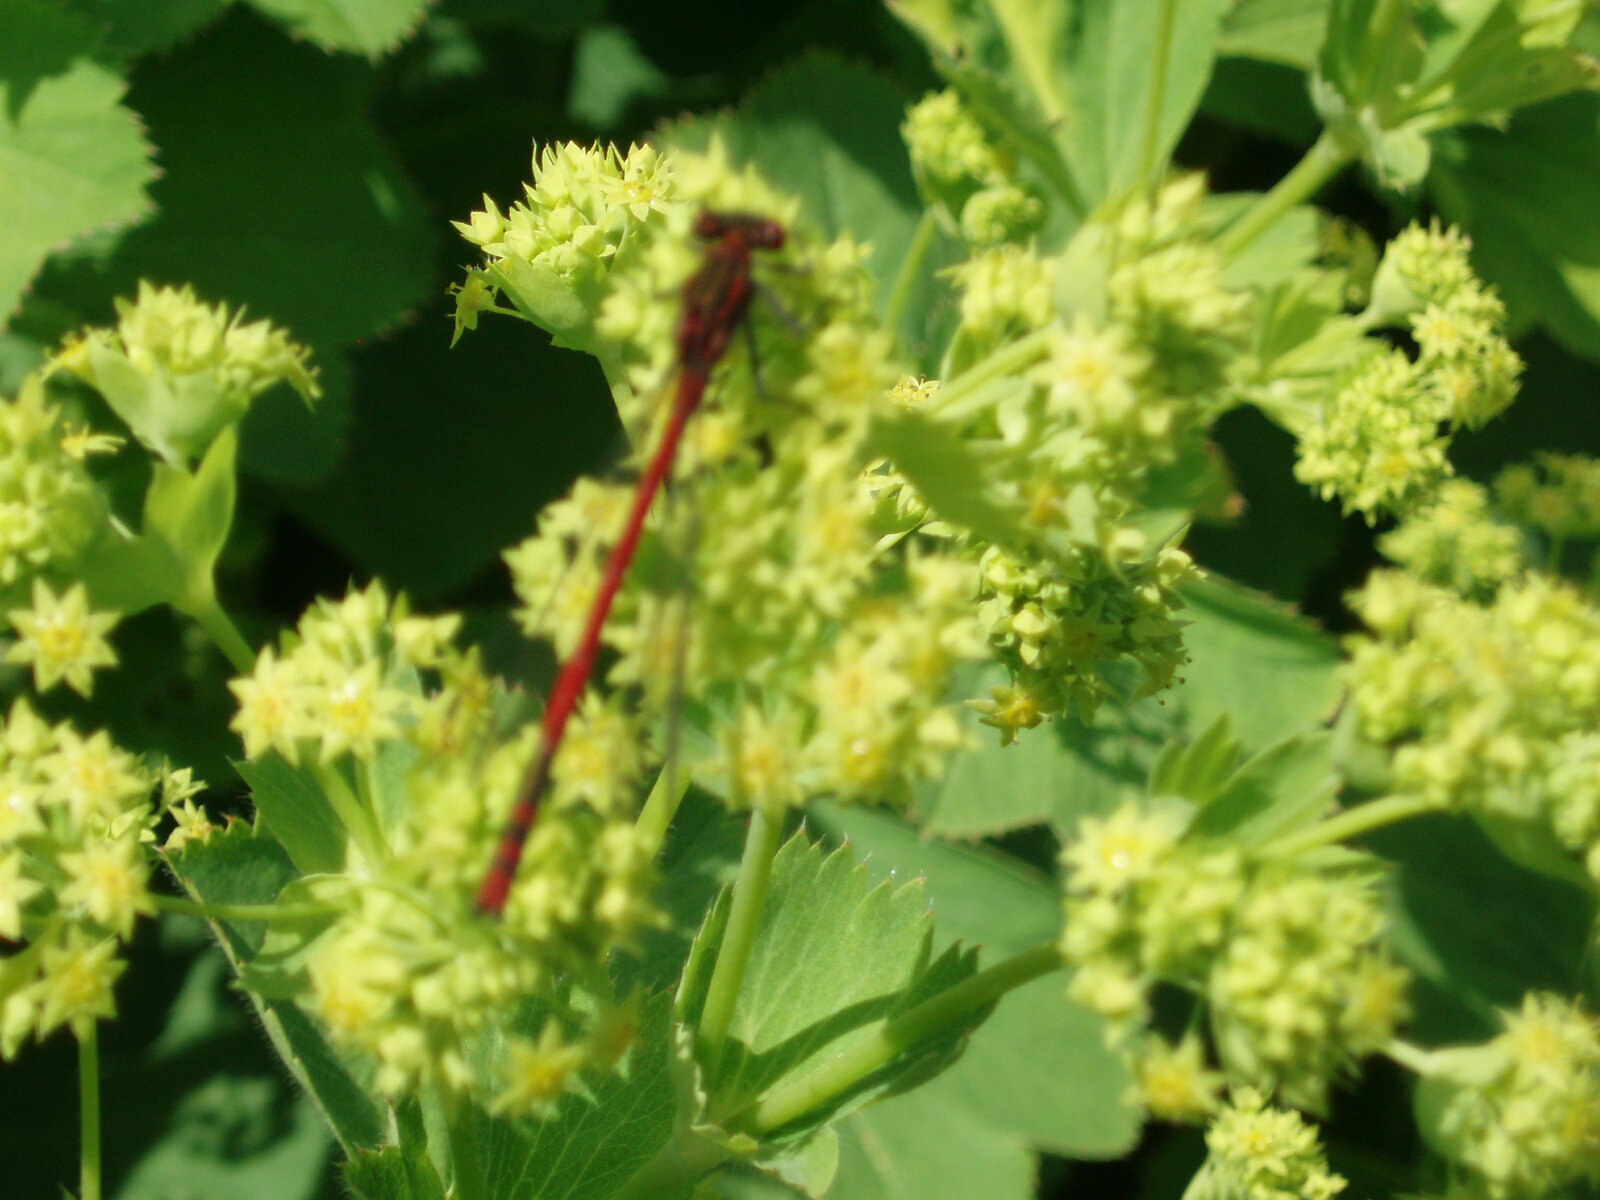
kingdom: Animalia
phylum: Arthropoda
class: Insecta
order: Odonata
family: Coenagrionidae
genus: Pyrrhosoma
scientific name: Pyrrhosoma nymphula
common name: Large red damsel
